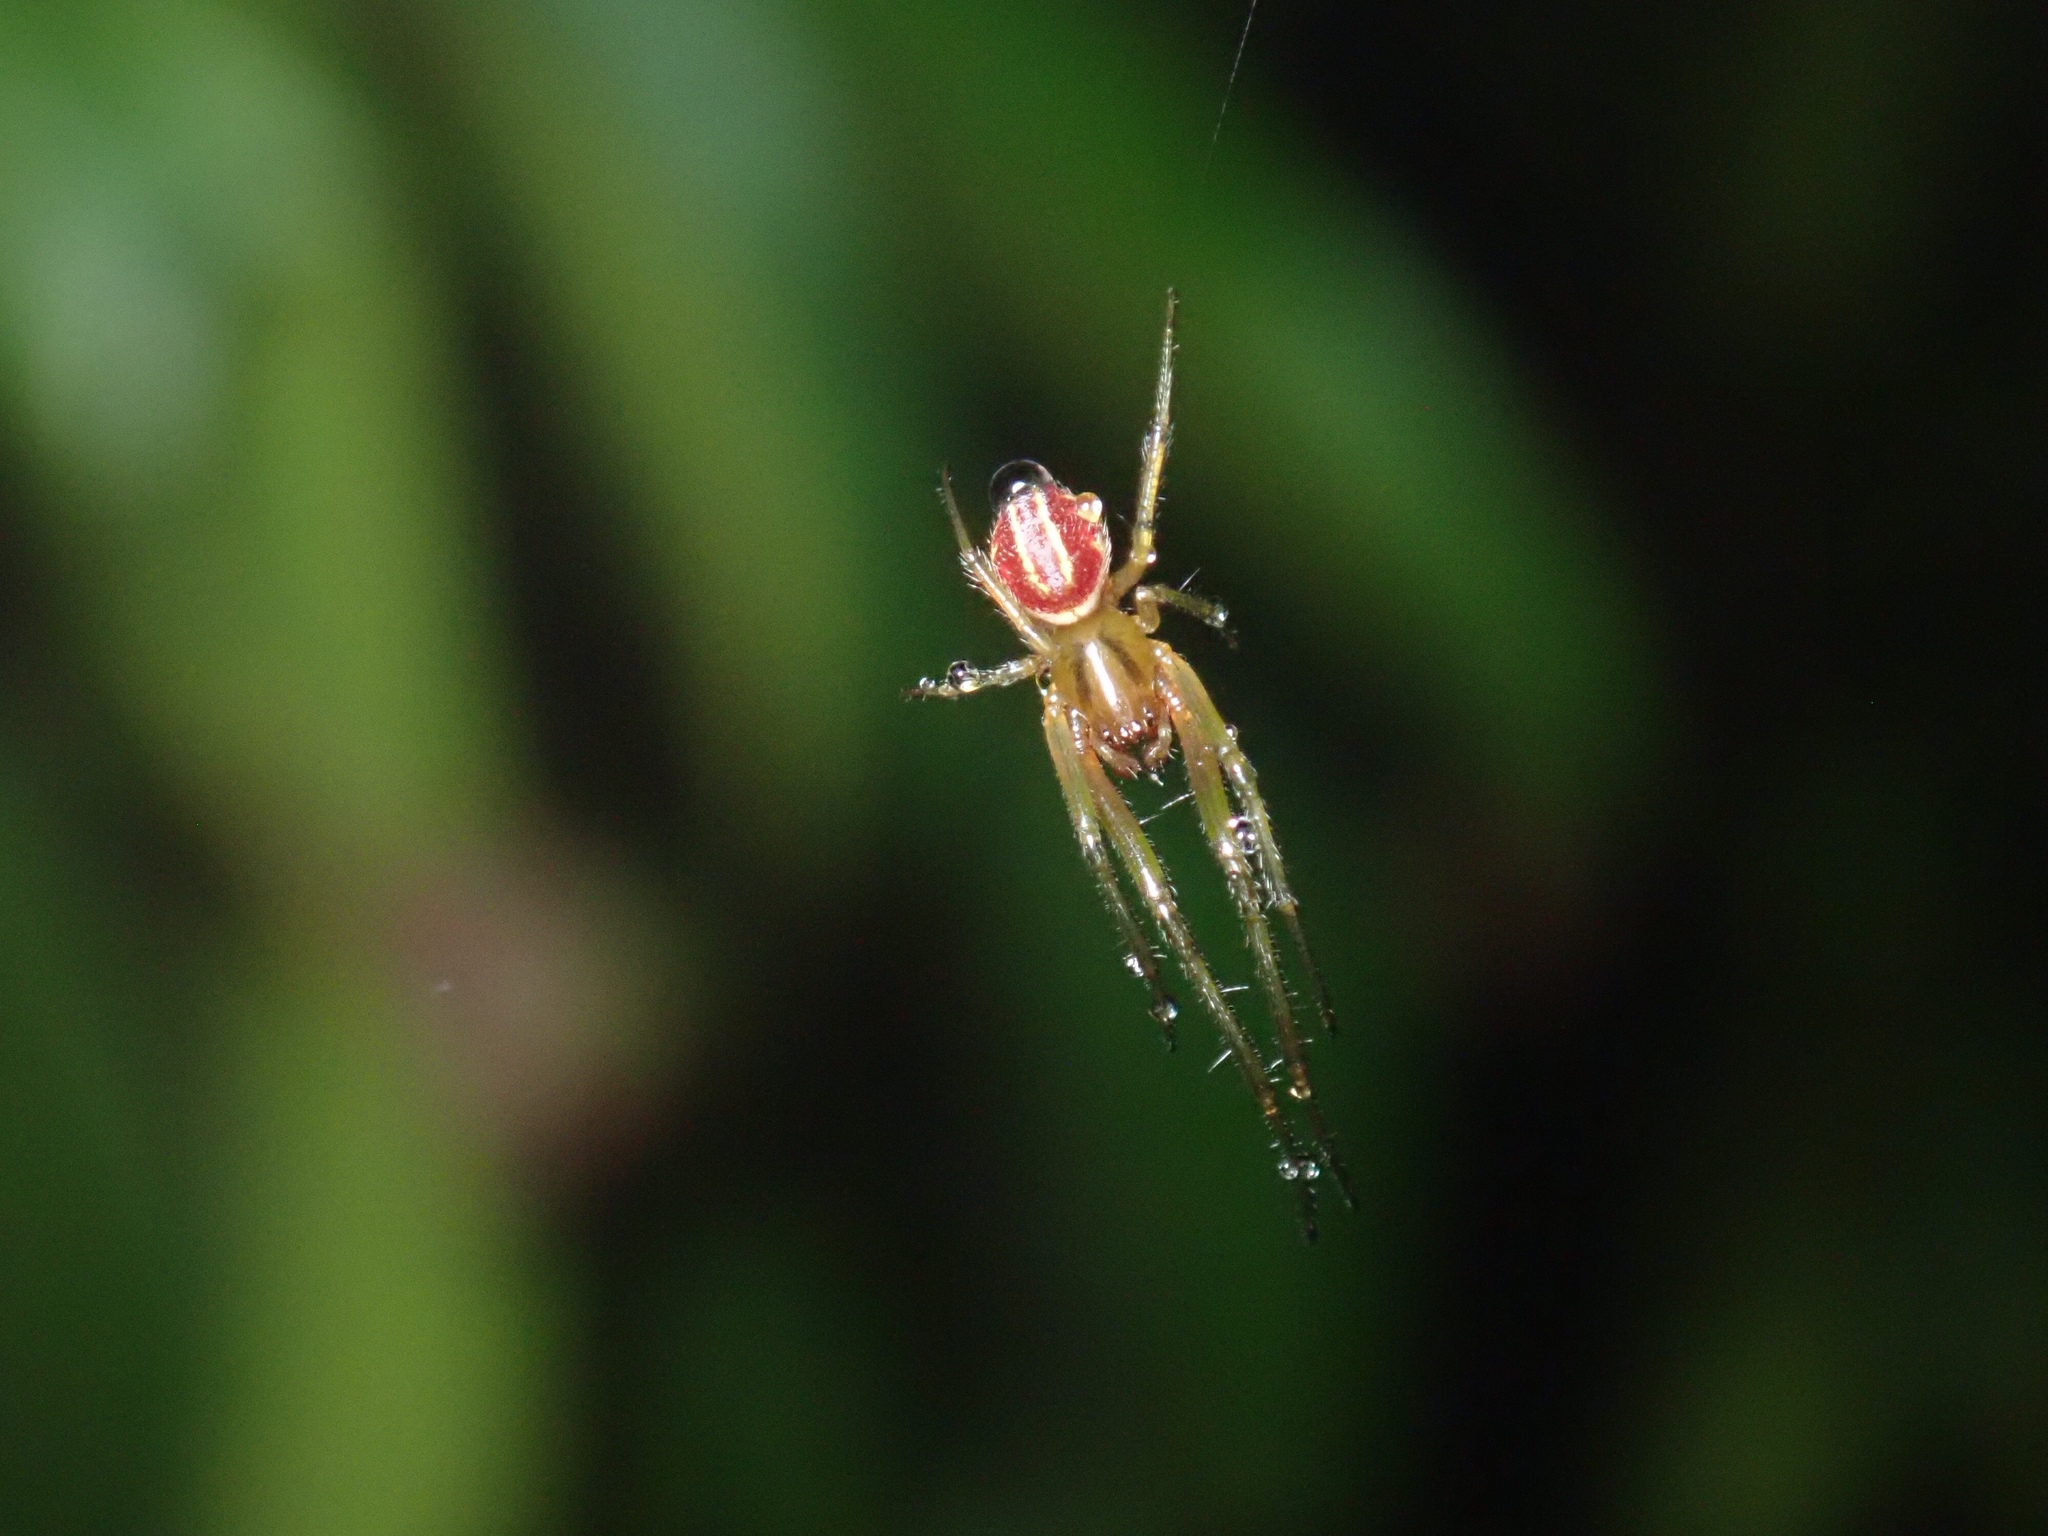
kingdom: Animalia
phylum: Arthropoda
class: Arachnida
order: Araneae
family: Araneidae
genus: Deliochus
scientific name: Deliochus zelivira
